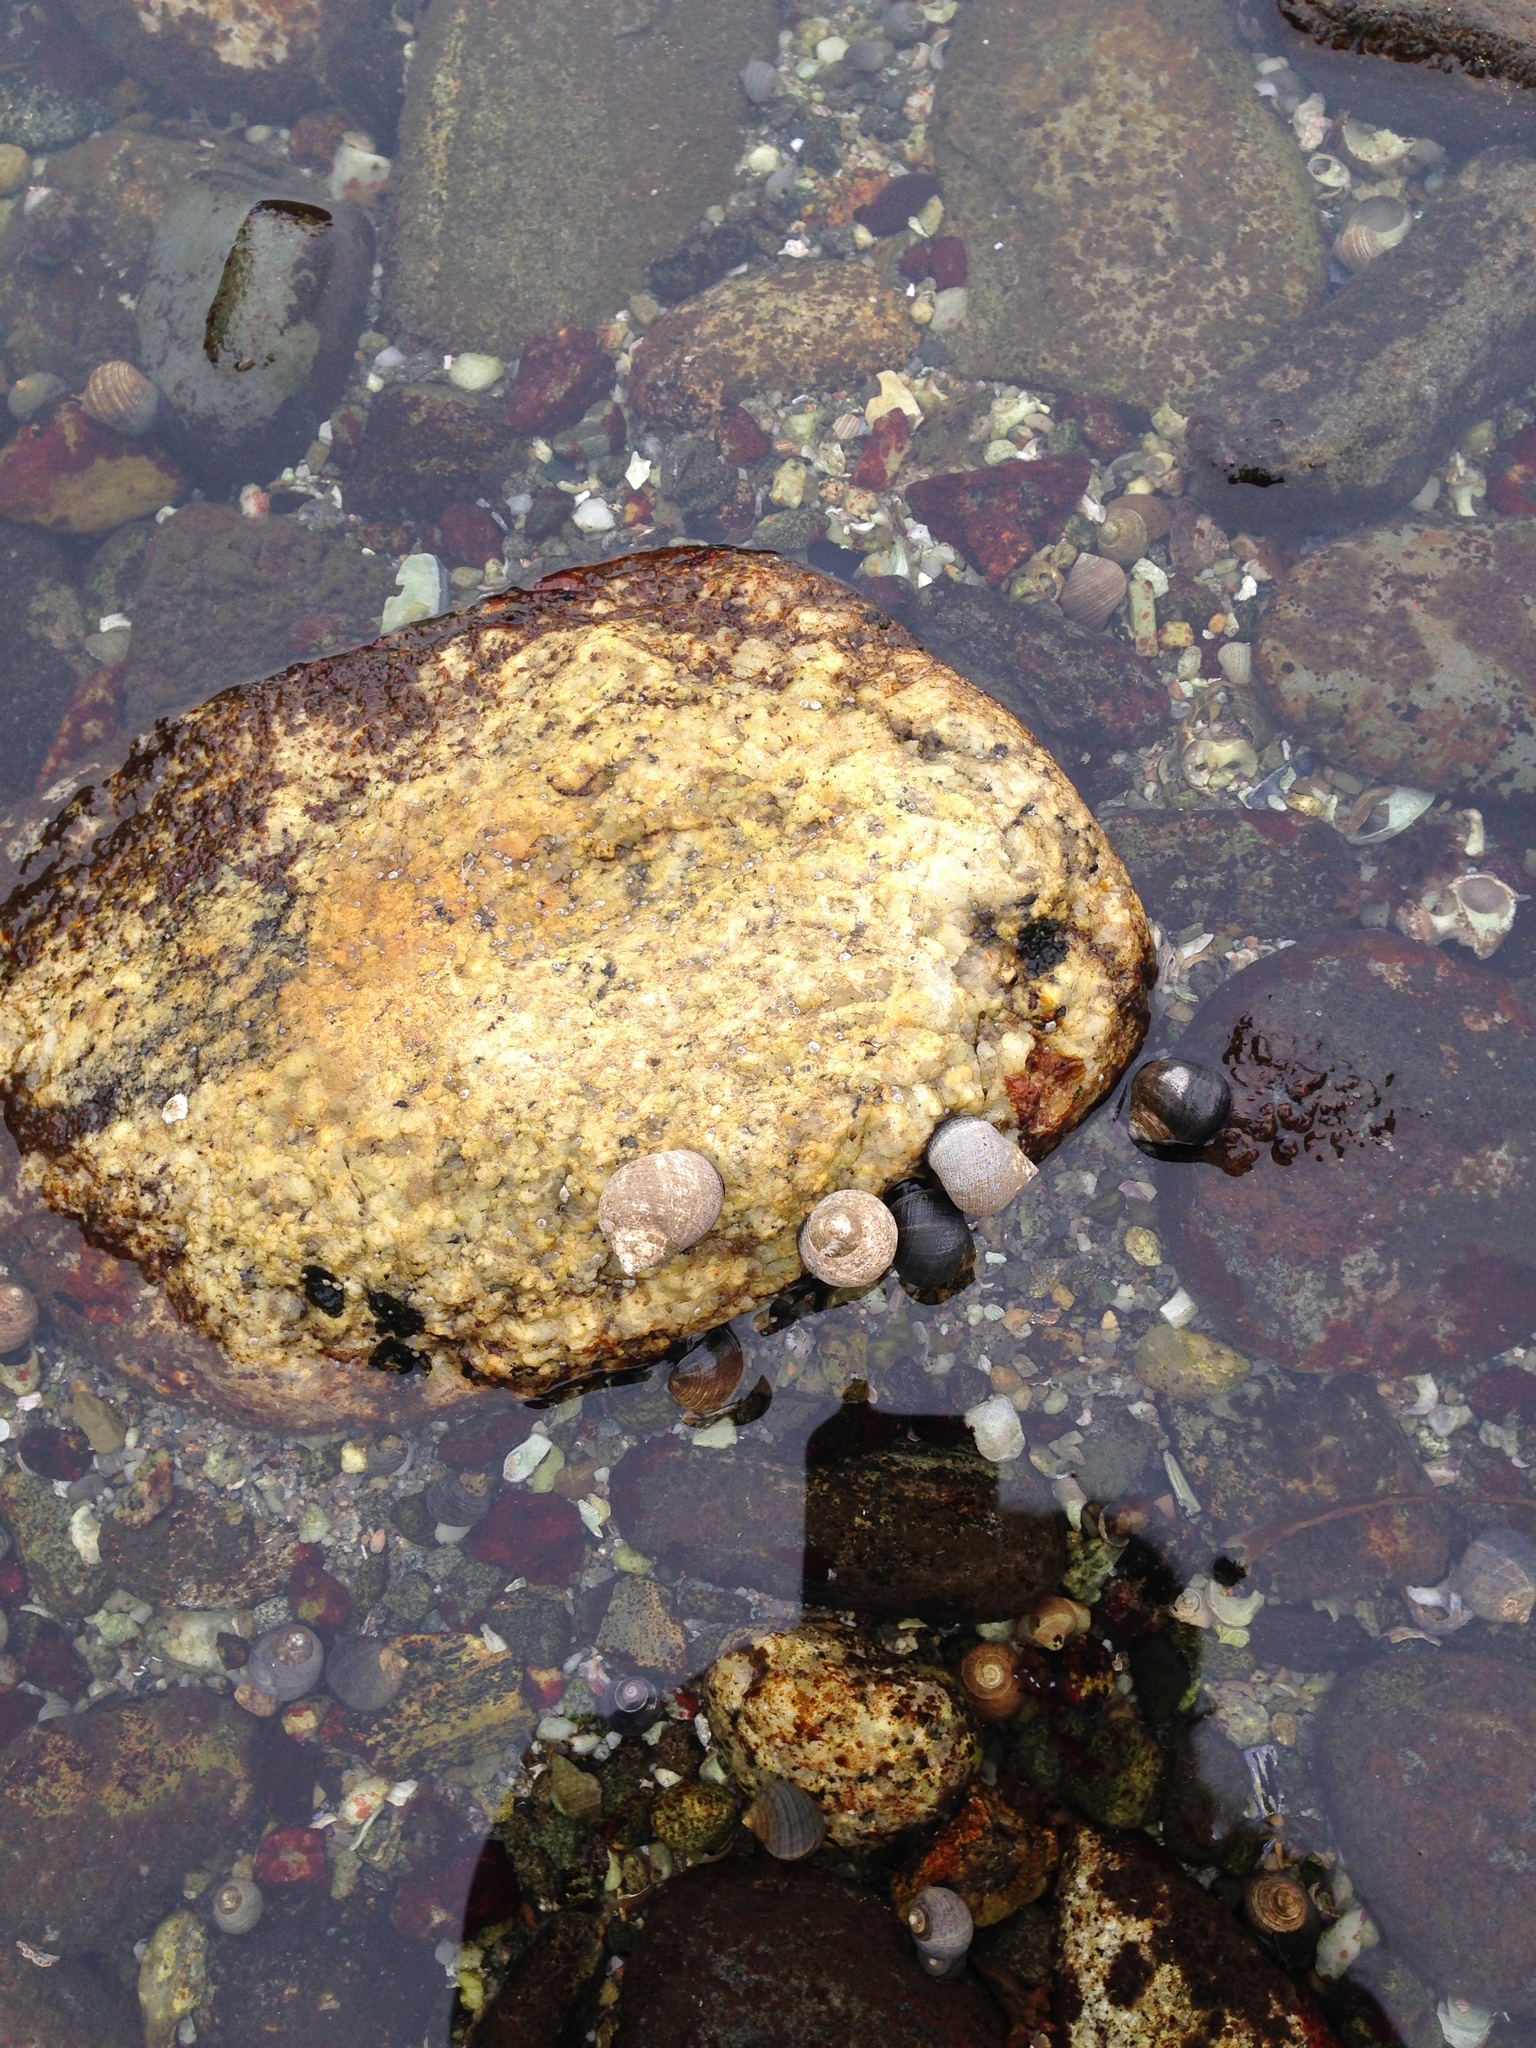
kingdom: Animalia
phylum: Mollusca
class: Gastropoda
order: Littorinimorpha
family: Littorinidae
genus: Littorina
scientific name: Littorina littorea
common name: Common periwinkle
